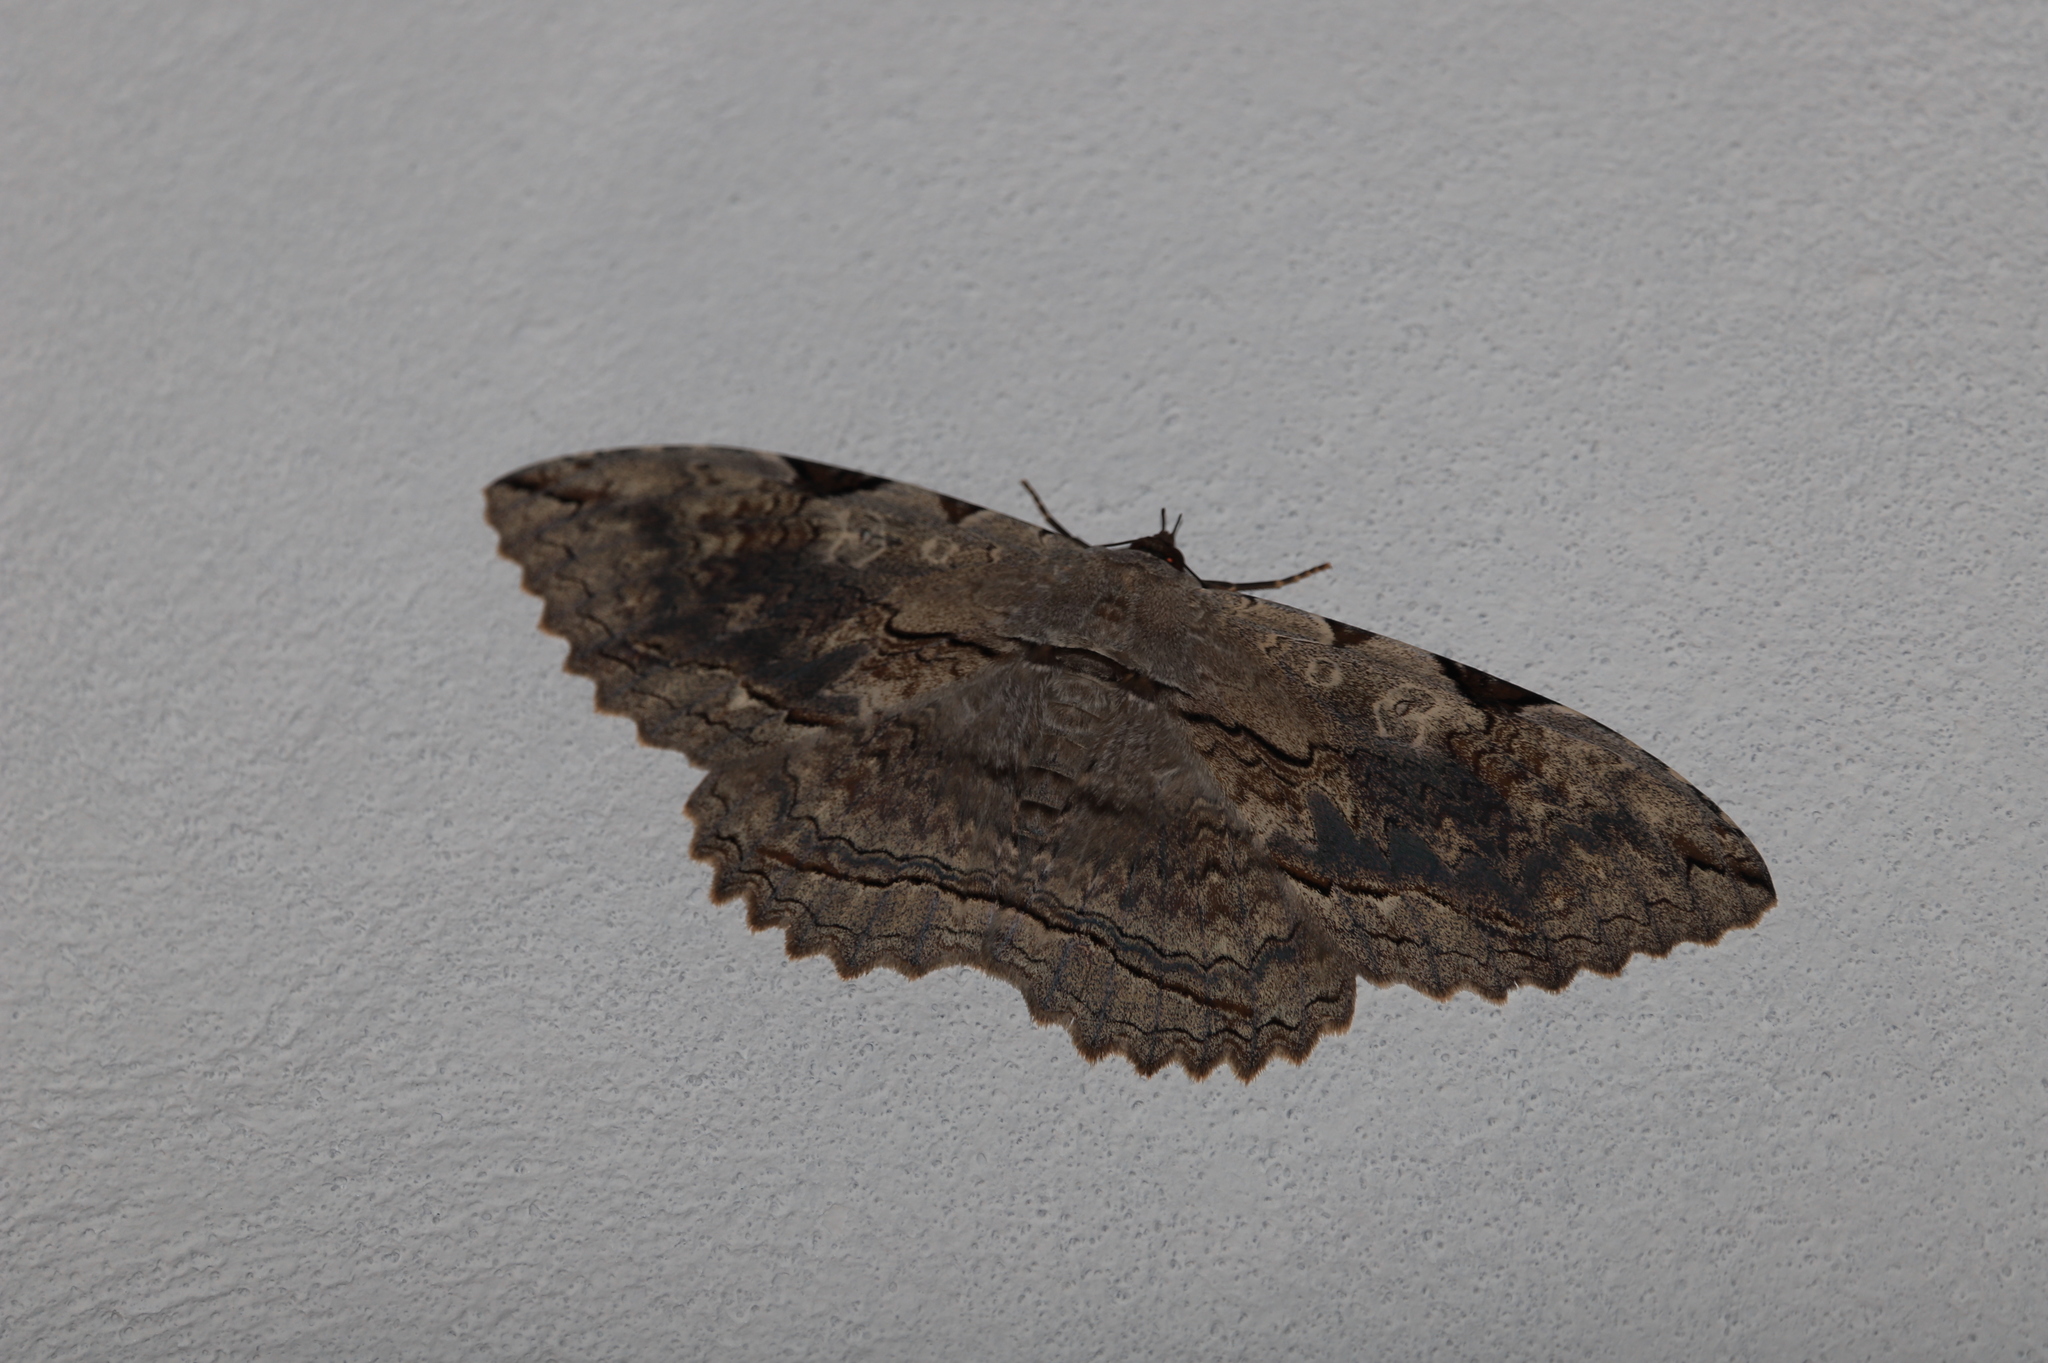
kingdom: Animalia
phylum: Arthropoda
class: Insecta
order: Lepidoptera
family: Erebidae
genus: Thysania
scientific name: Thysania zenobia
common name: Owl moth
